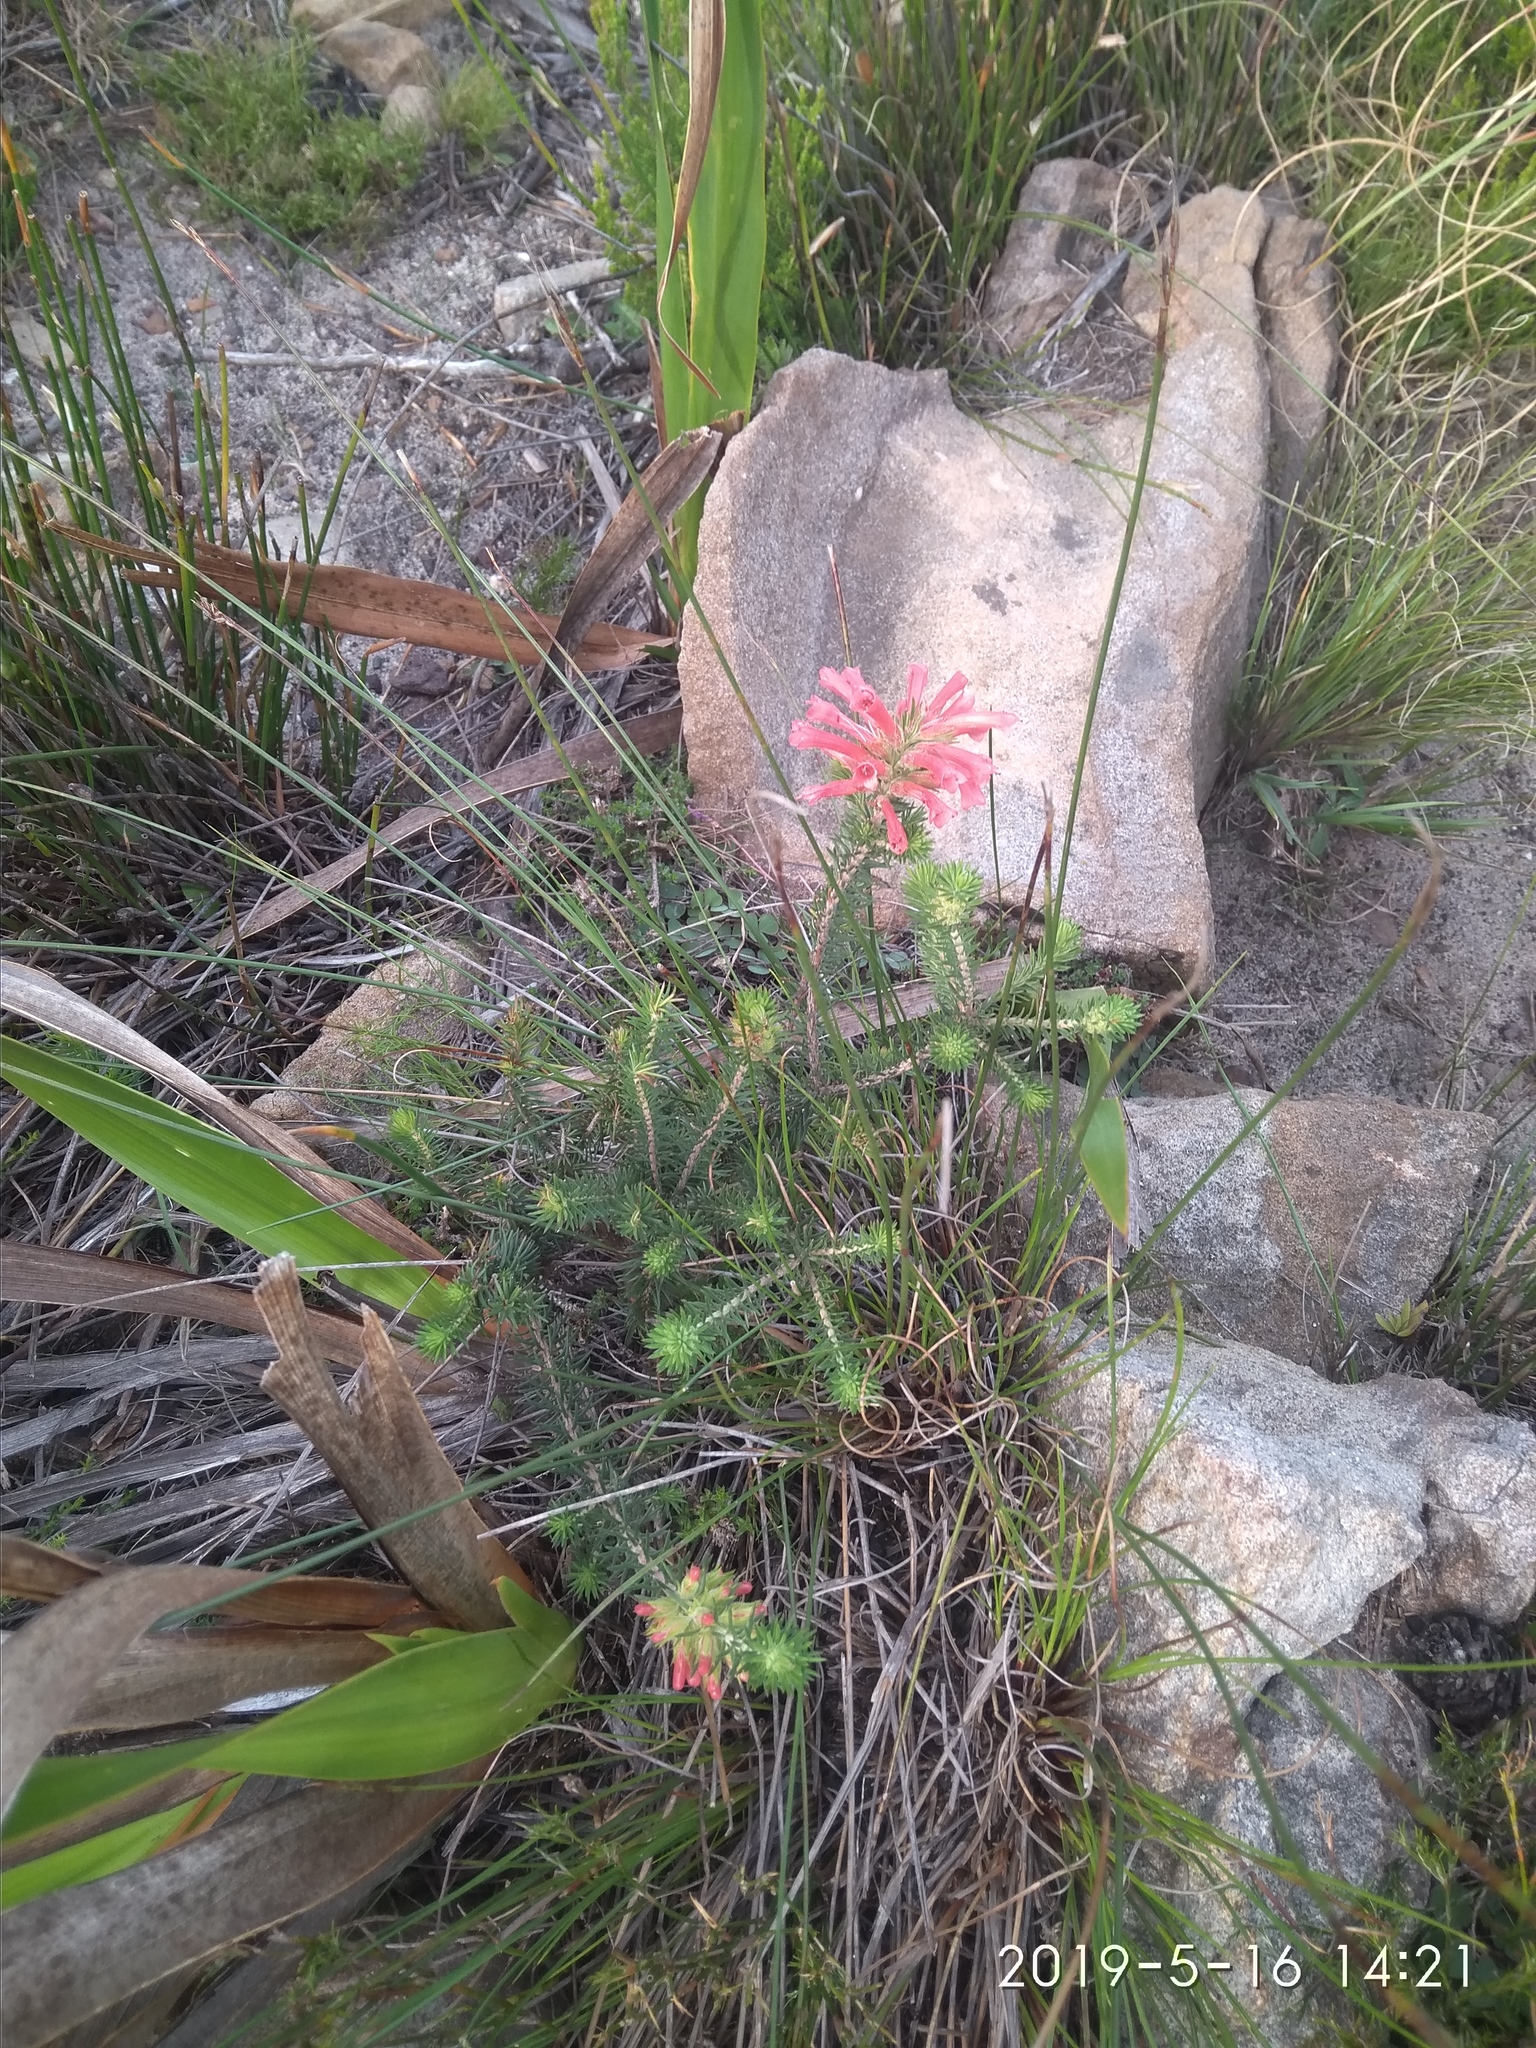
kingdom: Plantae
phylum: Tracheophyta
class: Magnoliopsida
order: Ericales
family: Ericaceae
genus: Erica
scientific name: Erica abietina
